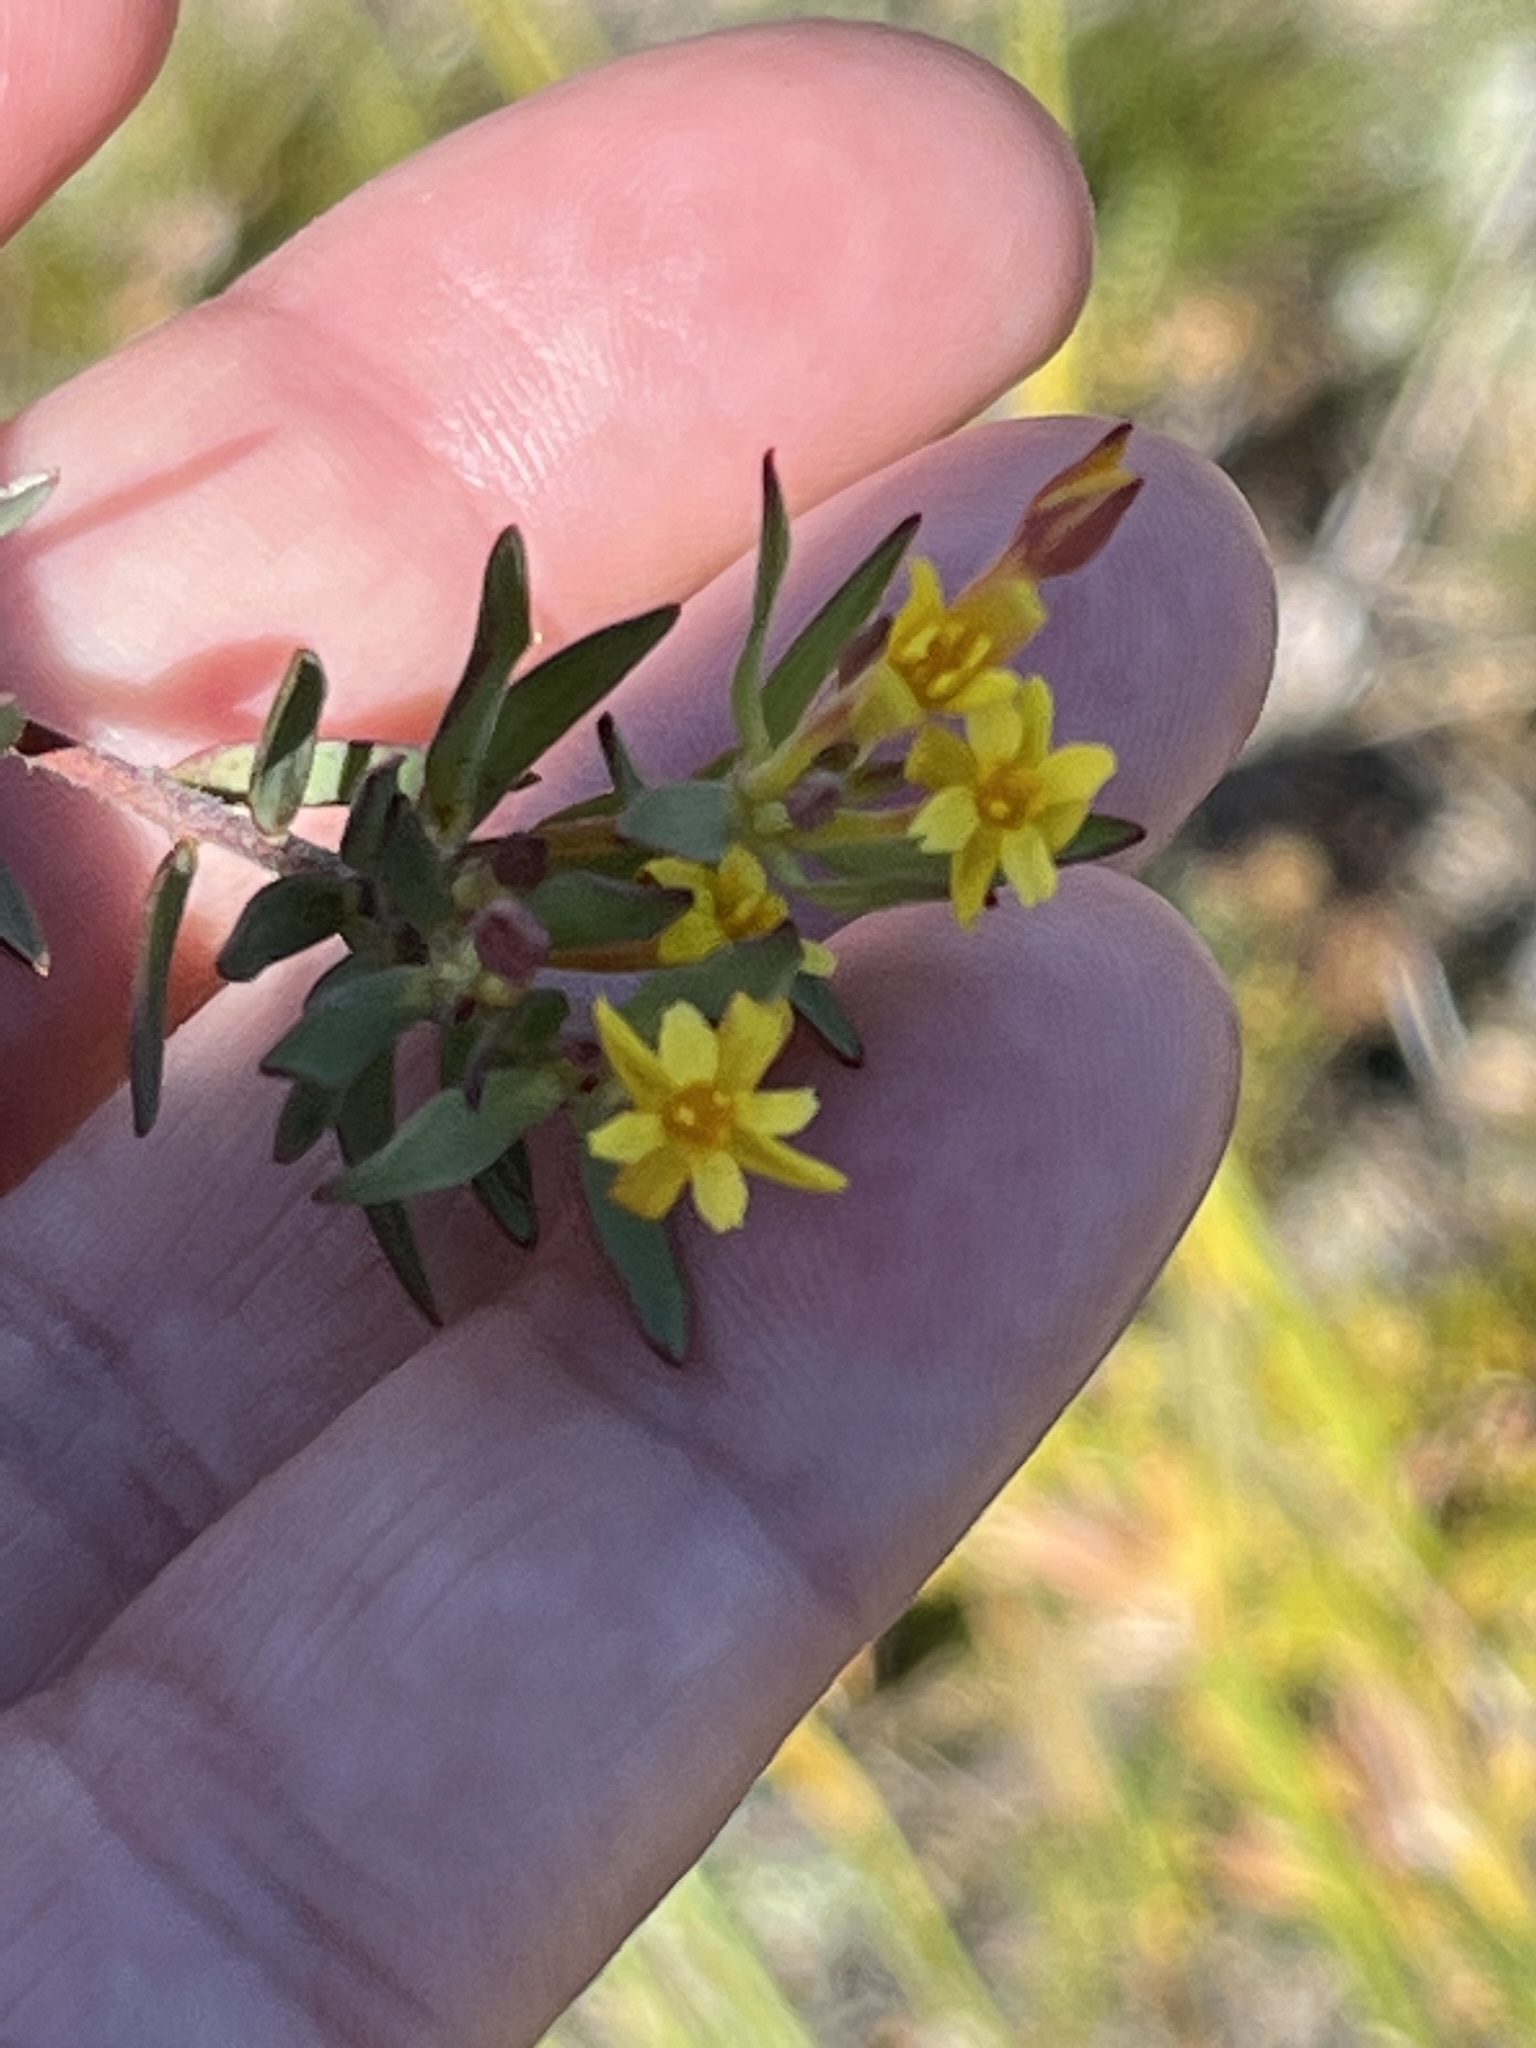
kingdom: Plantae
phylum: Tracheophyta
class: Magnoliopsida
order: Malvales
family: Thymelaeaceae
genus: Gnidia
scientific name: Gnidia juniperifolia
